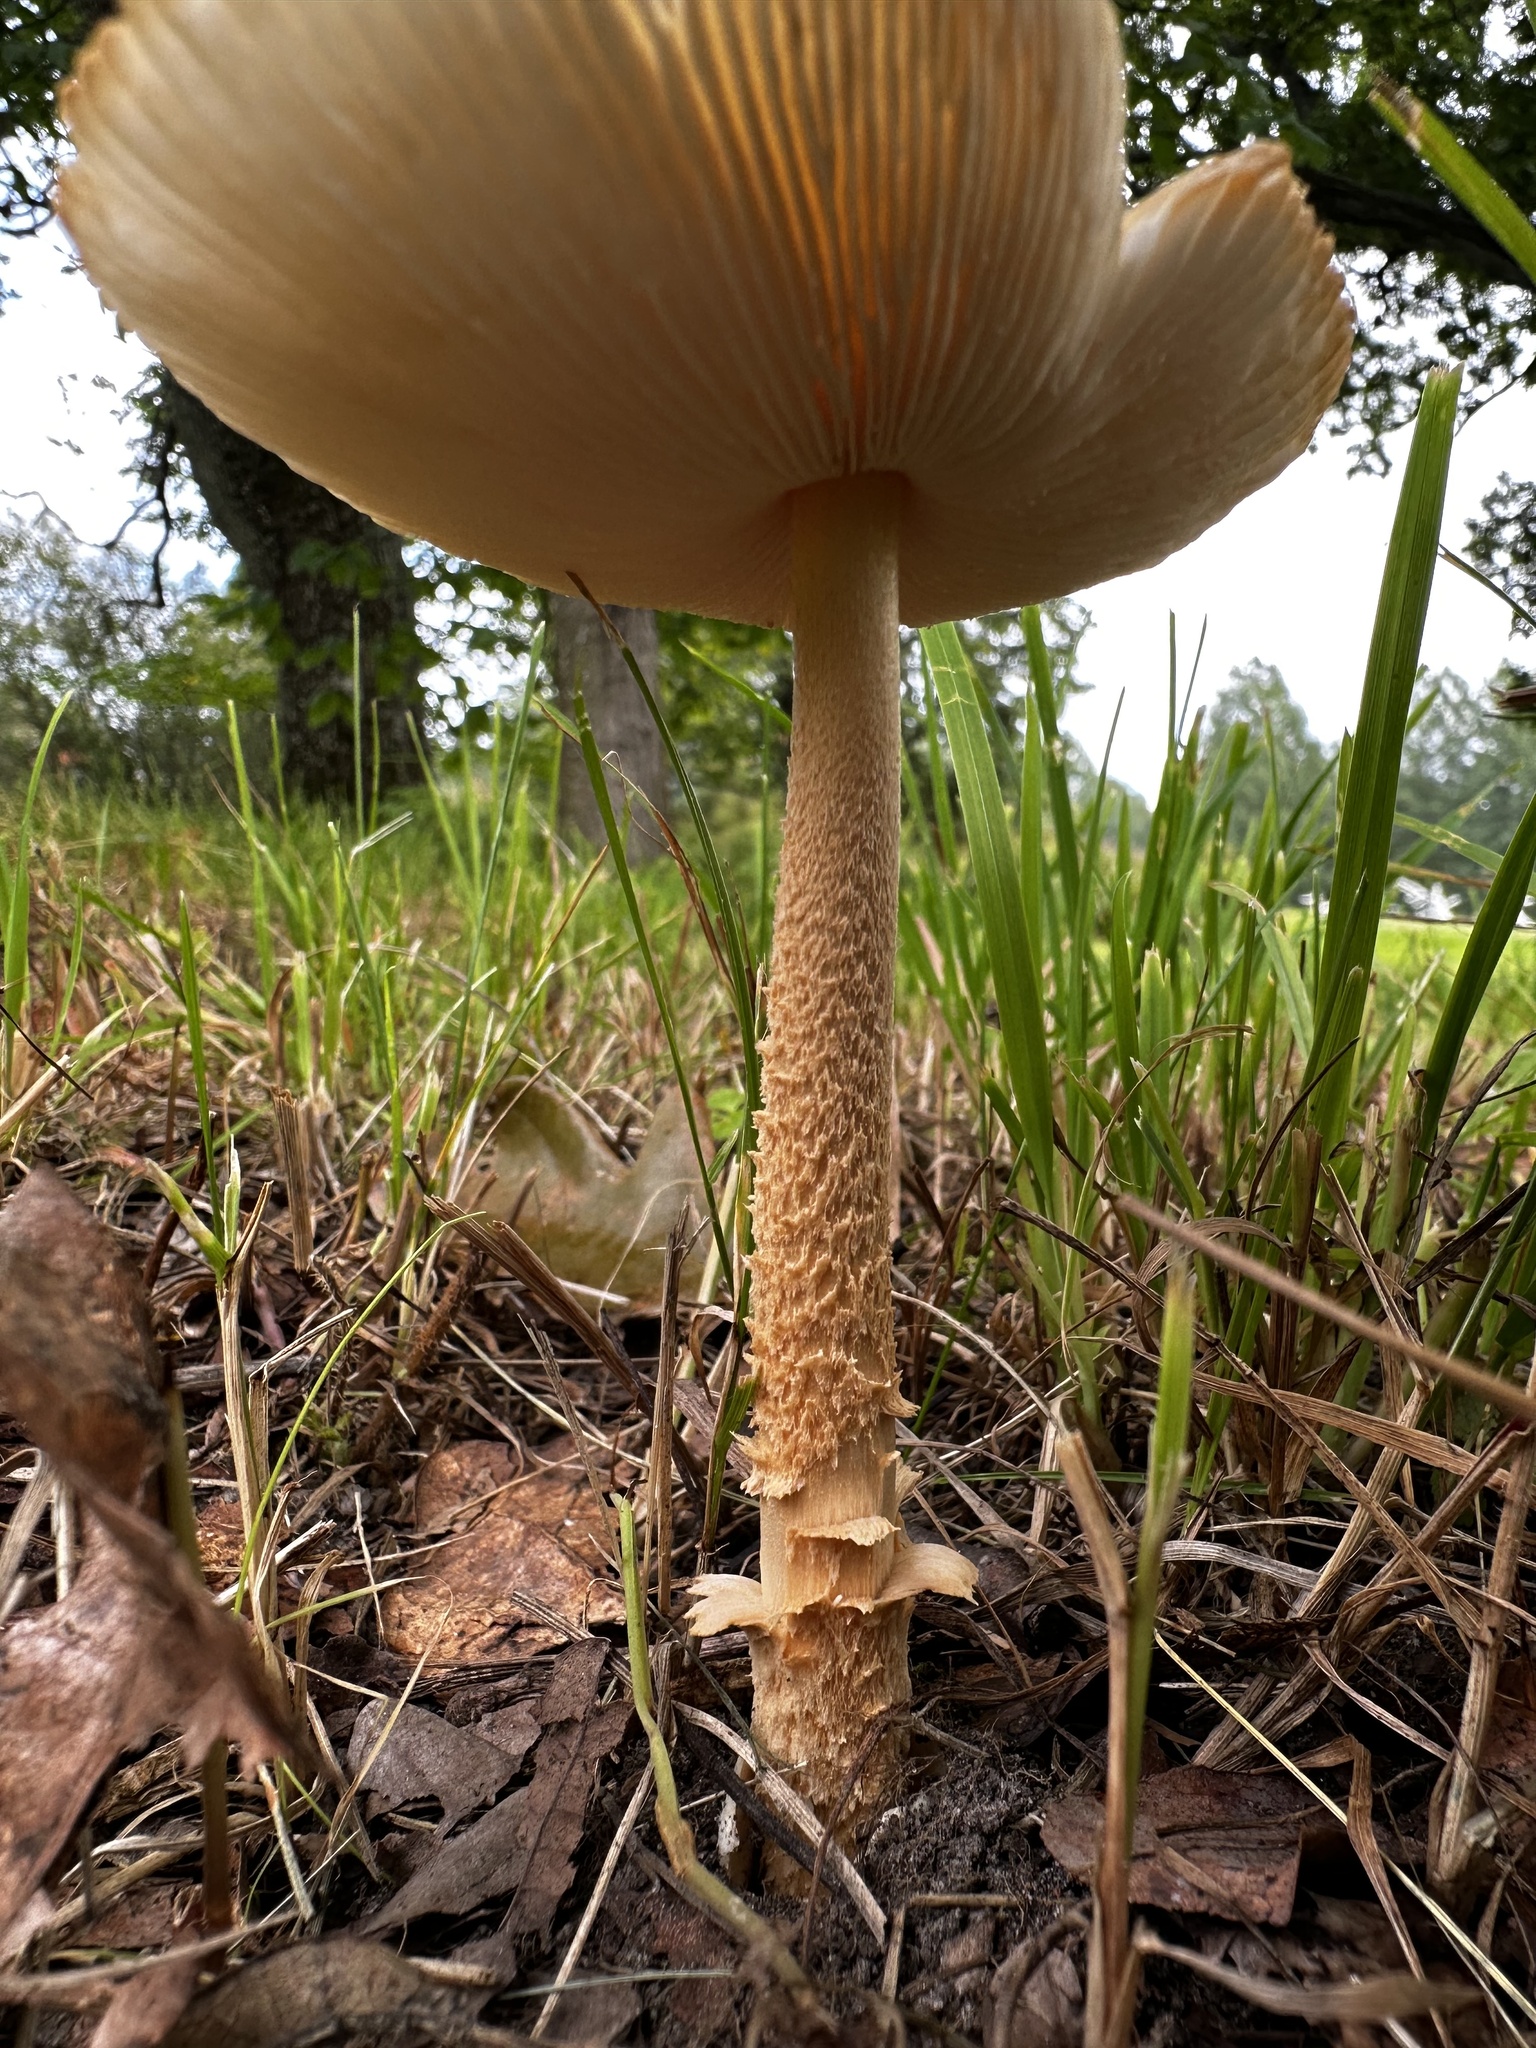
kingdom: Fungi
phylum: Basidiomycota
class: Agaricomycetes
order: Agaricales
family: Amanitaceae
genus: Amanita
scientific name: Amanita crocea
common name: Orange grisette
